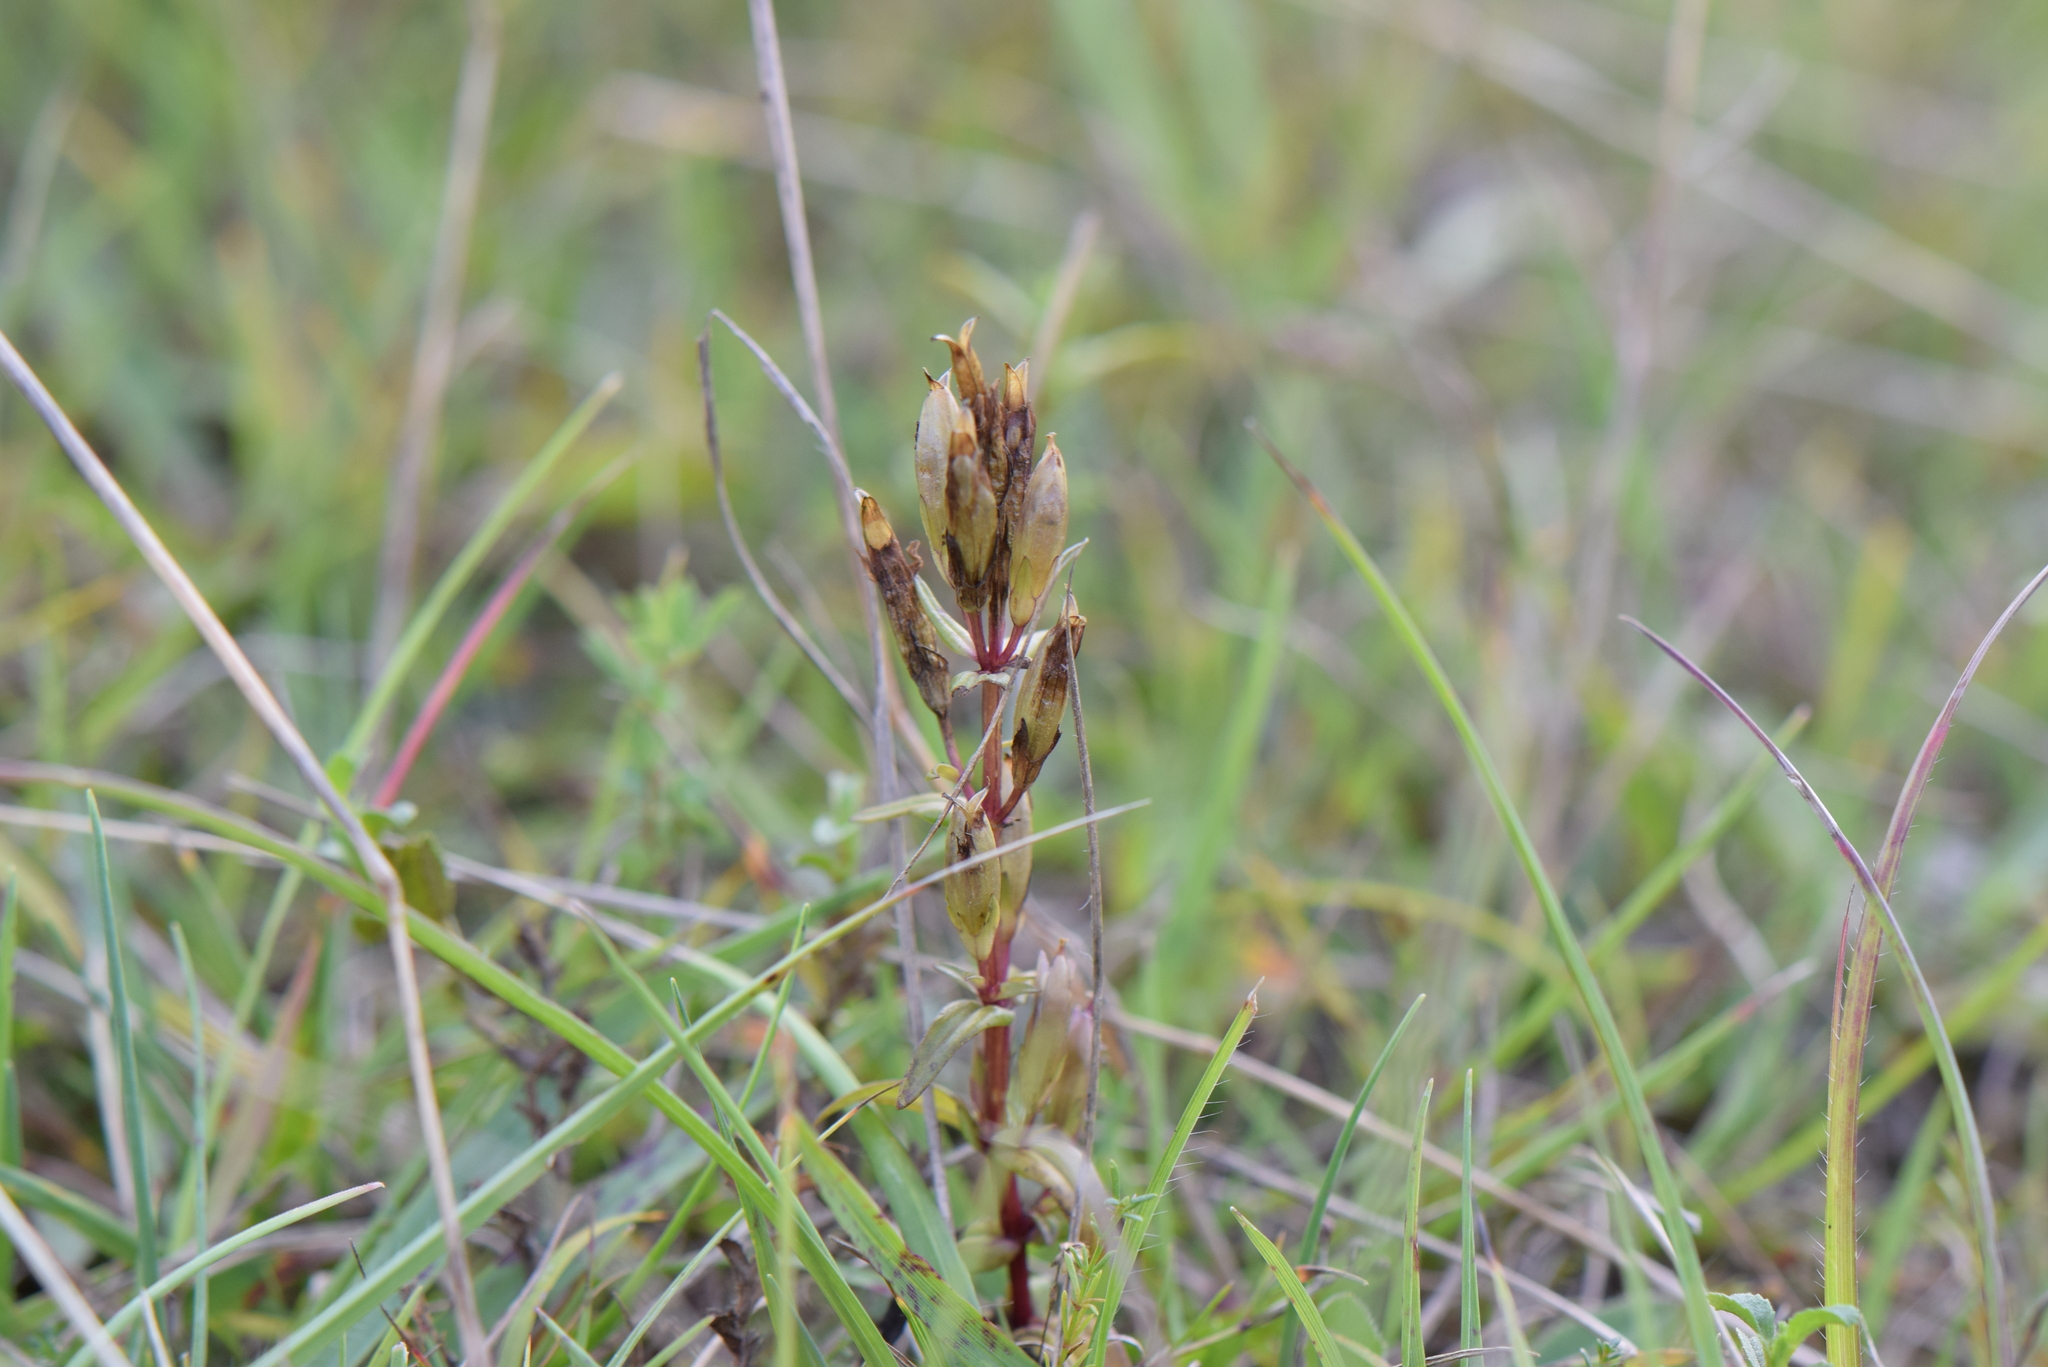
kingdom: Plantae
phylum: Tracheophyta
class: Magnoliopsida
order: Gentianales
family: Gentianaceae
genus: Gentianella
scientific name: Gentianella amarella
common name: Autumn gentian
